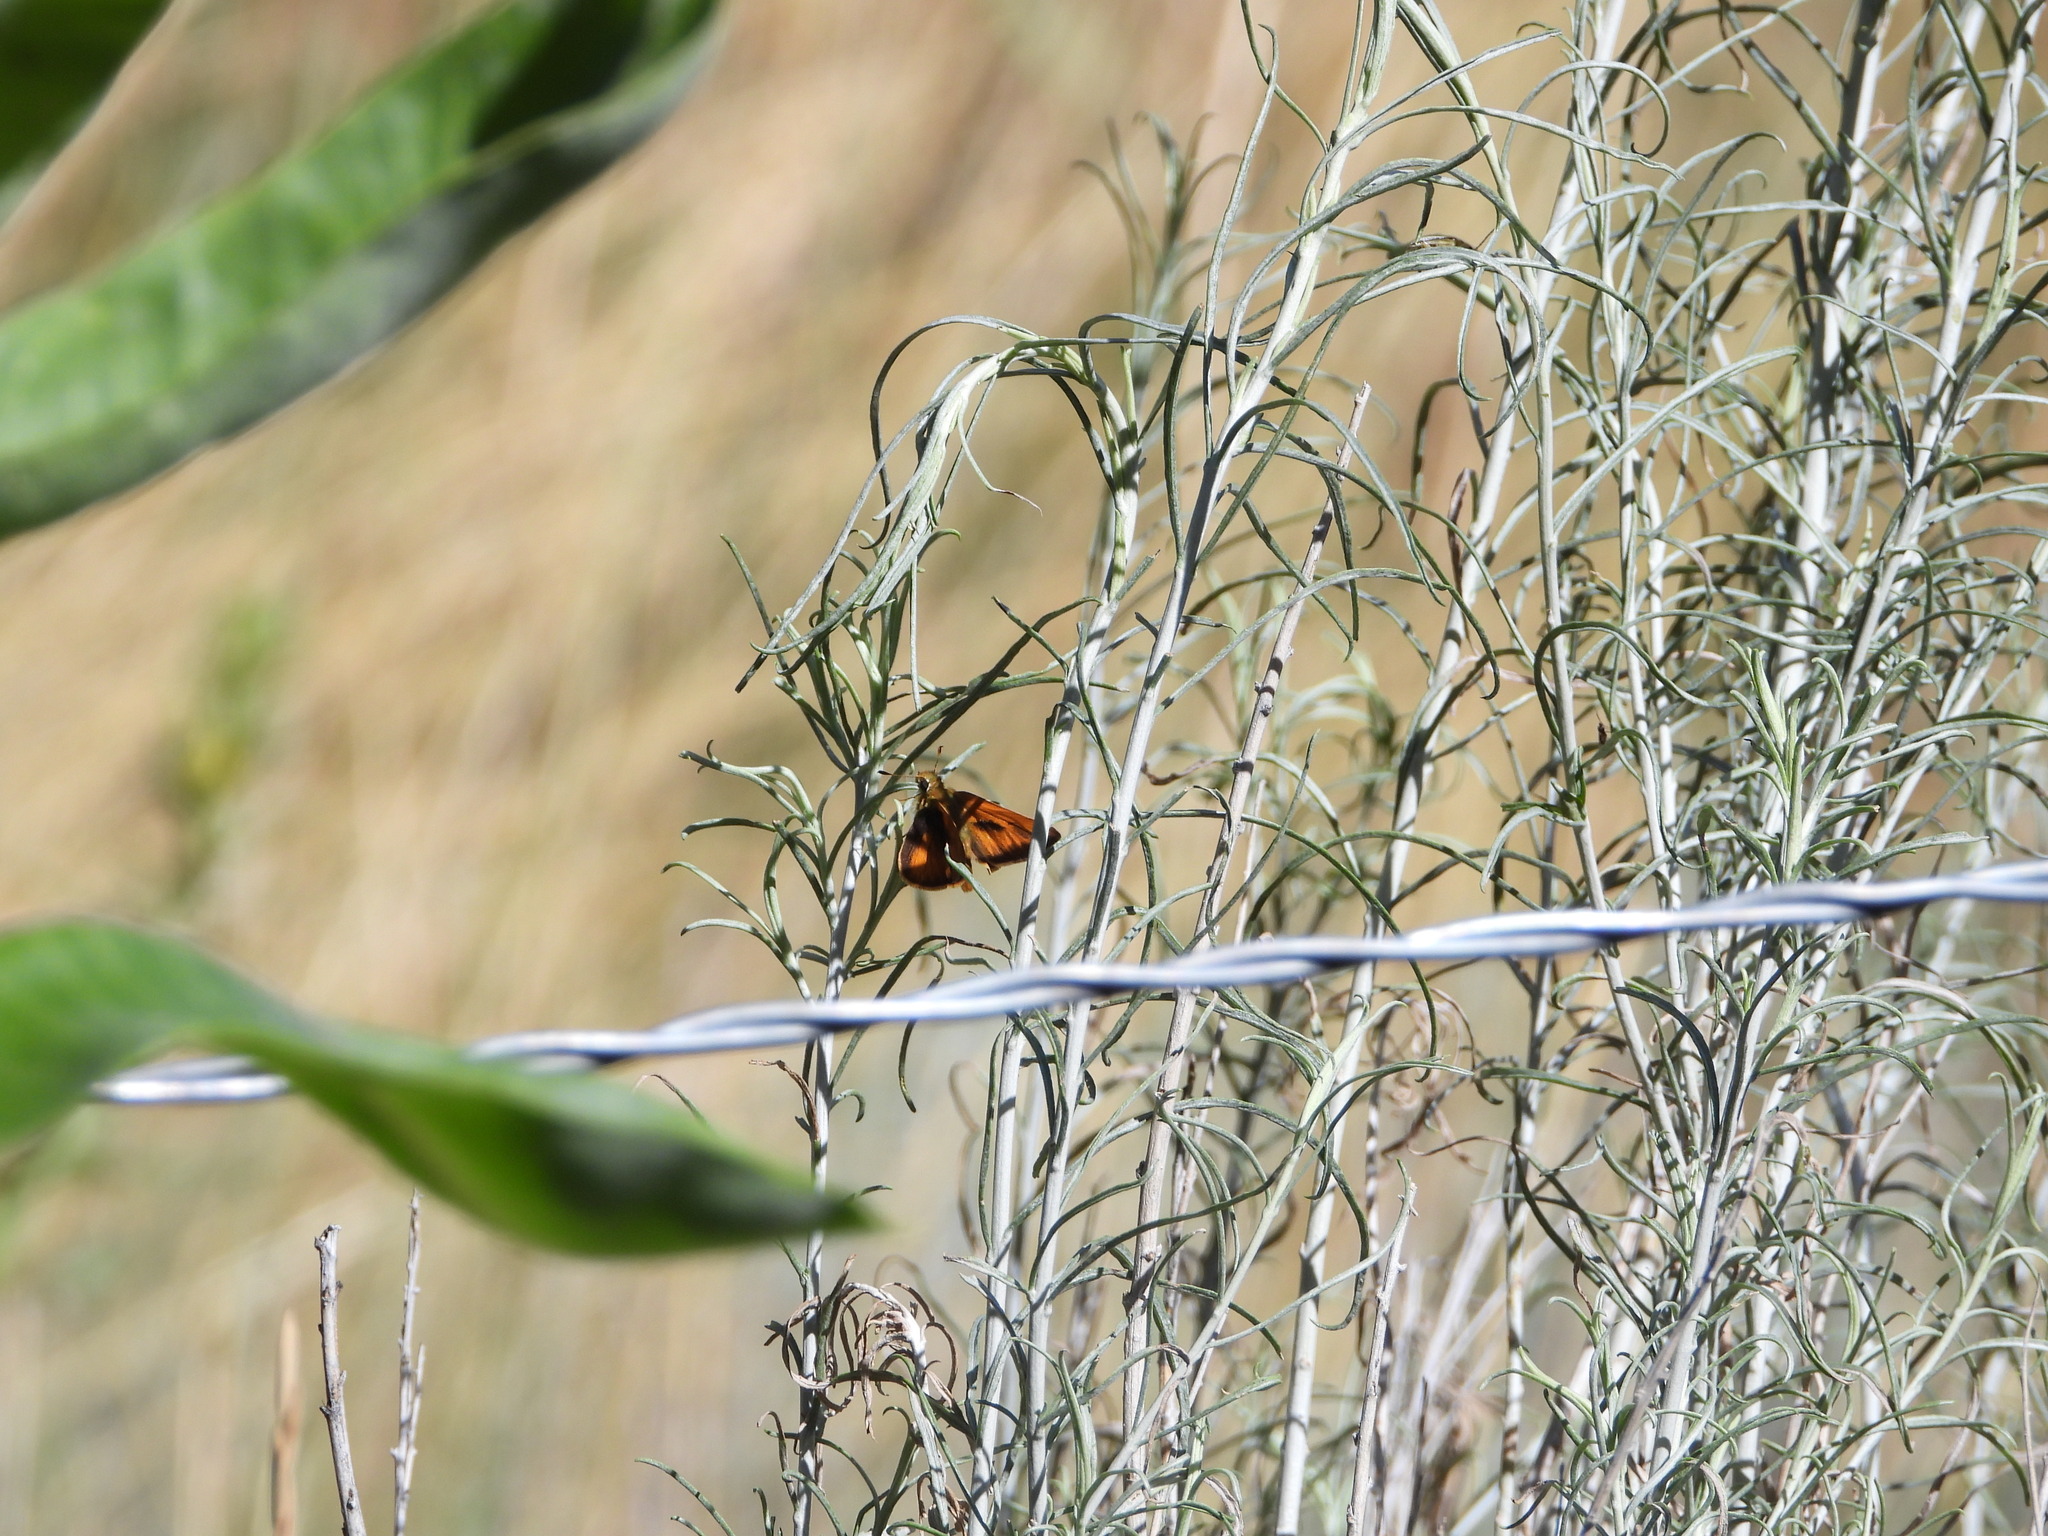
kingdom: Animalia
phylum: Arthropoda
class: Insecta
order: Lepidoptera
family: Hesperiidae
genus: Ochlodes
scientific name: Ochlodes sylvanoides
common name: Woodland skipper
